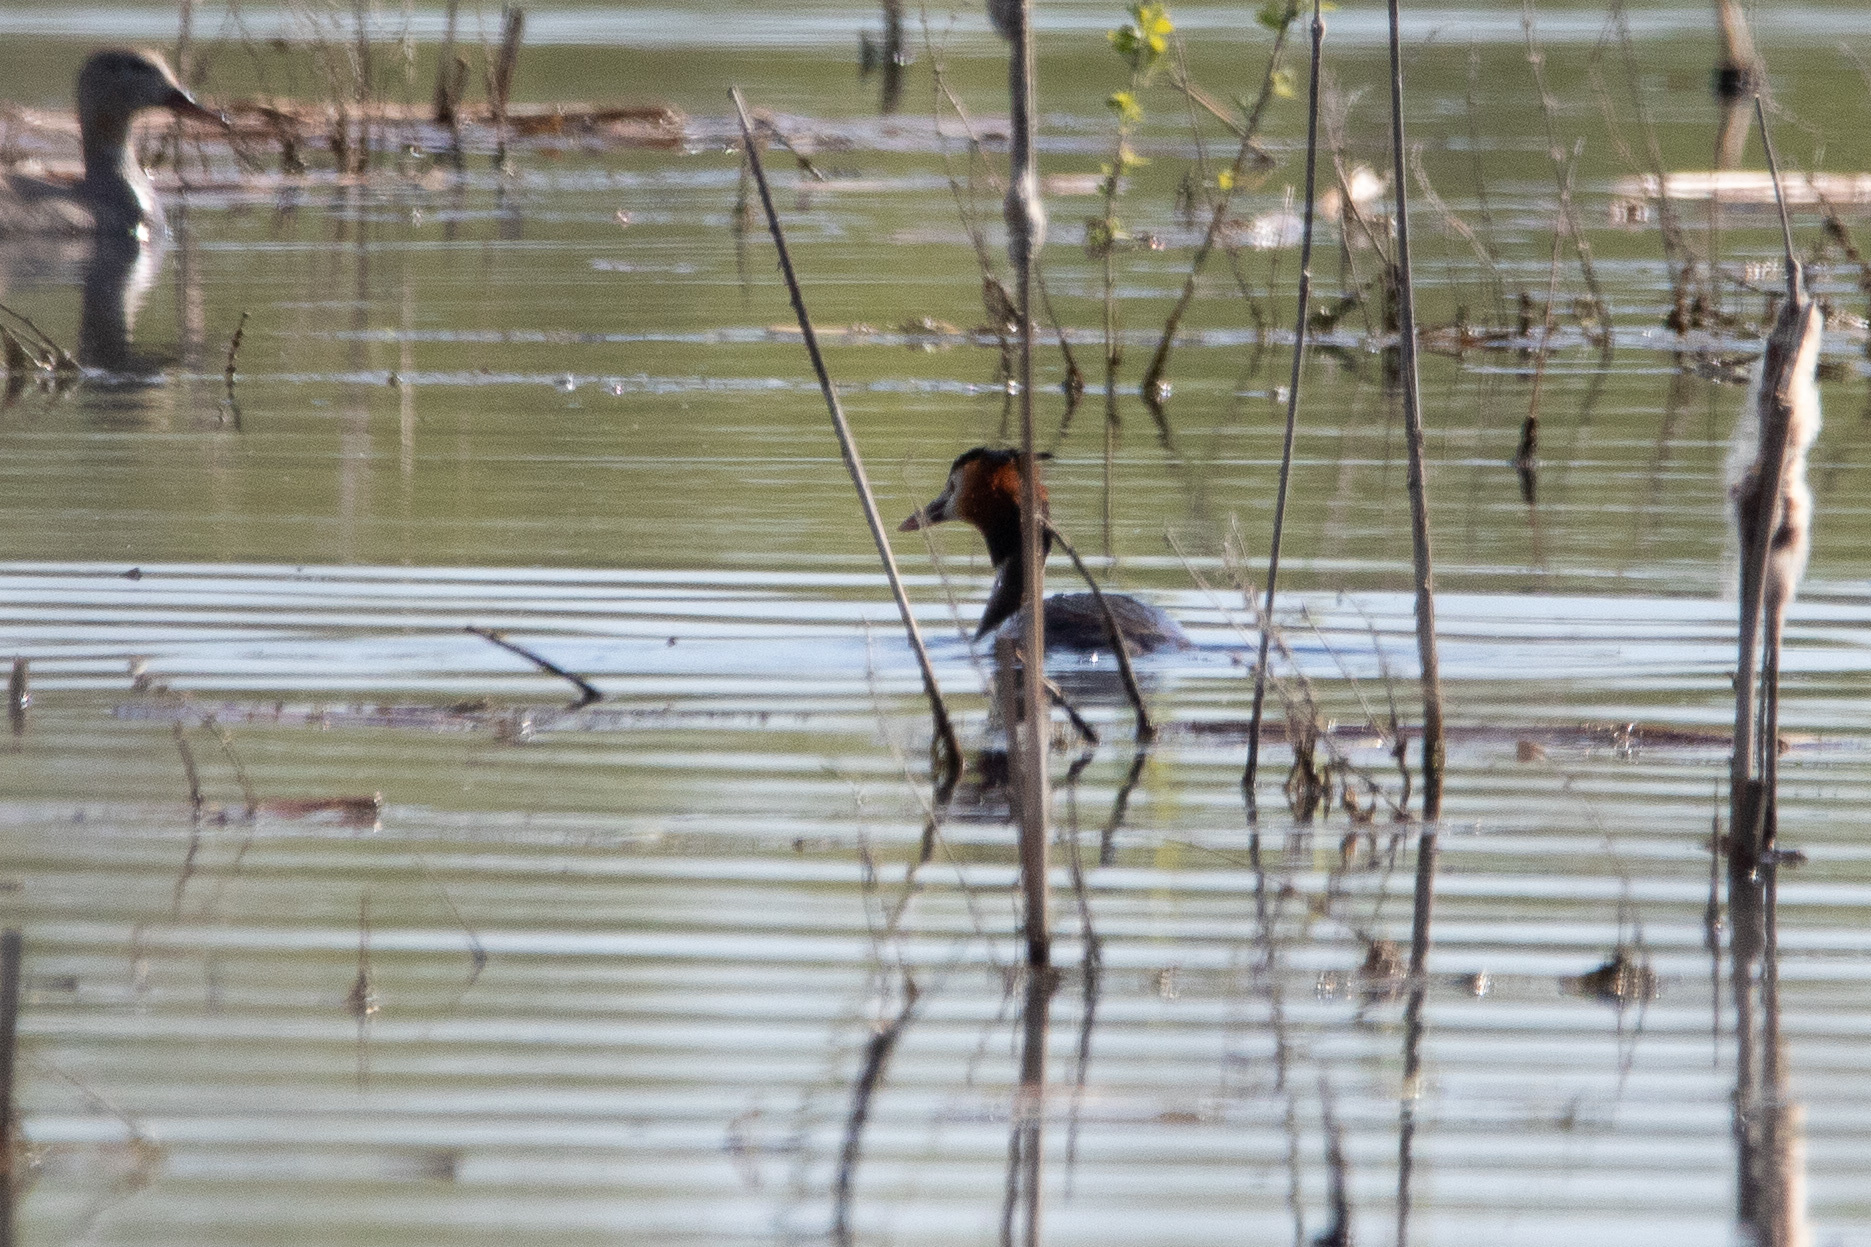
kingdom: Animalia
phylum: Chordata
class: Aves
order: Podicipediformes
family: Podicipedidae
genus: Podiceps
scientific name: Podiceps cristatus
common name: Great crested grebe
